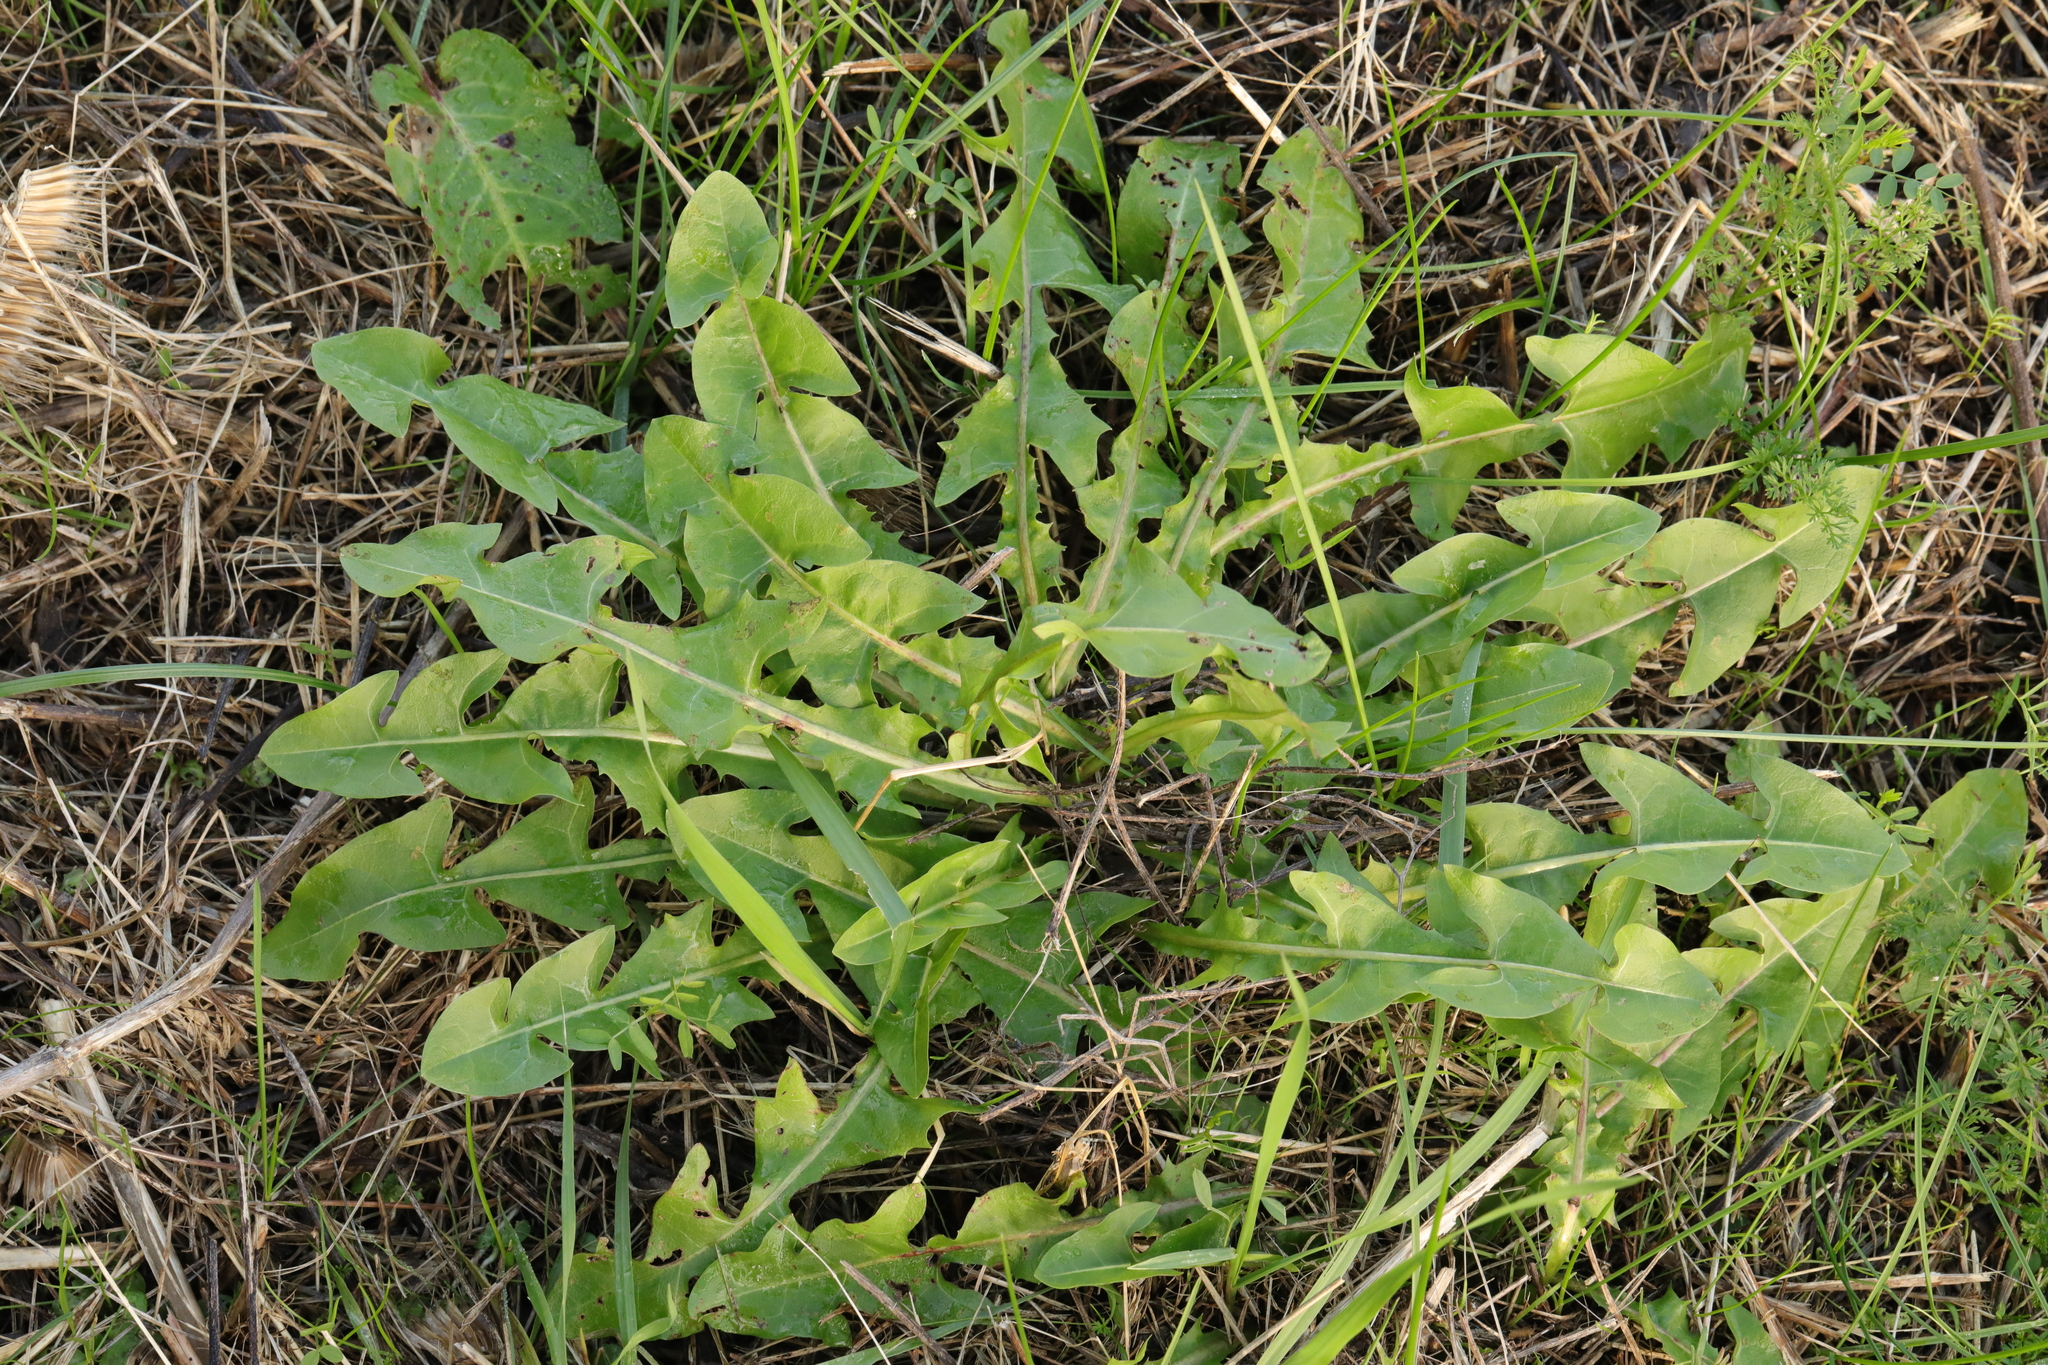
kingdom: Plantae
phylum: Tracheophyta
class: Magnoliopsida
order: Asterales
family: Asteraceae
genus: Taraxacum
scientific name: Taraxacum officinale
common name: Common dandelion
